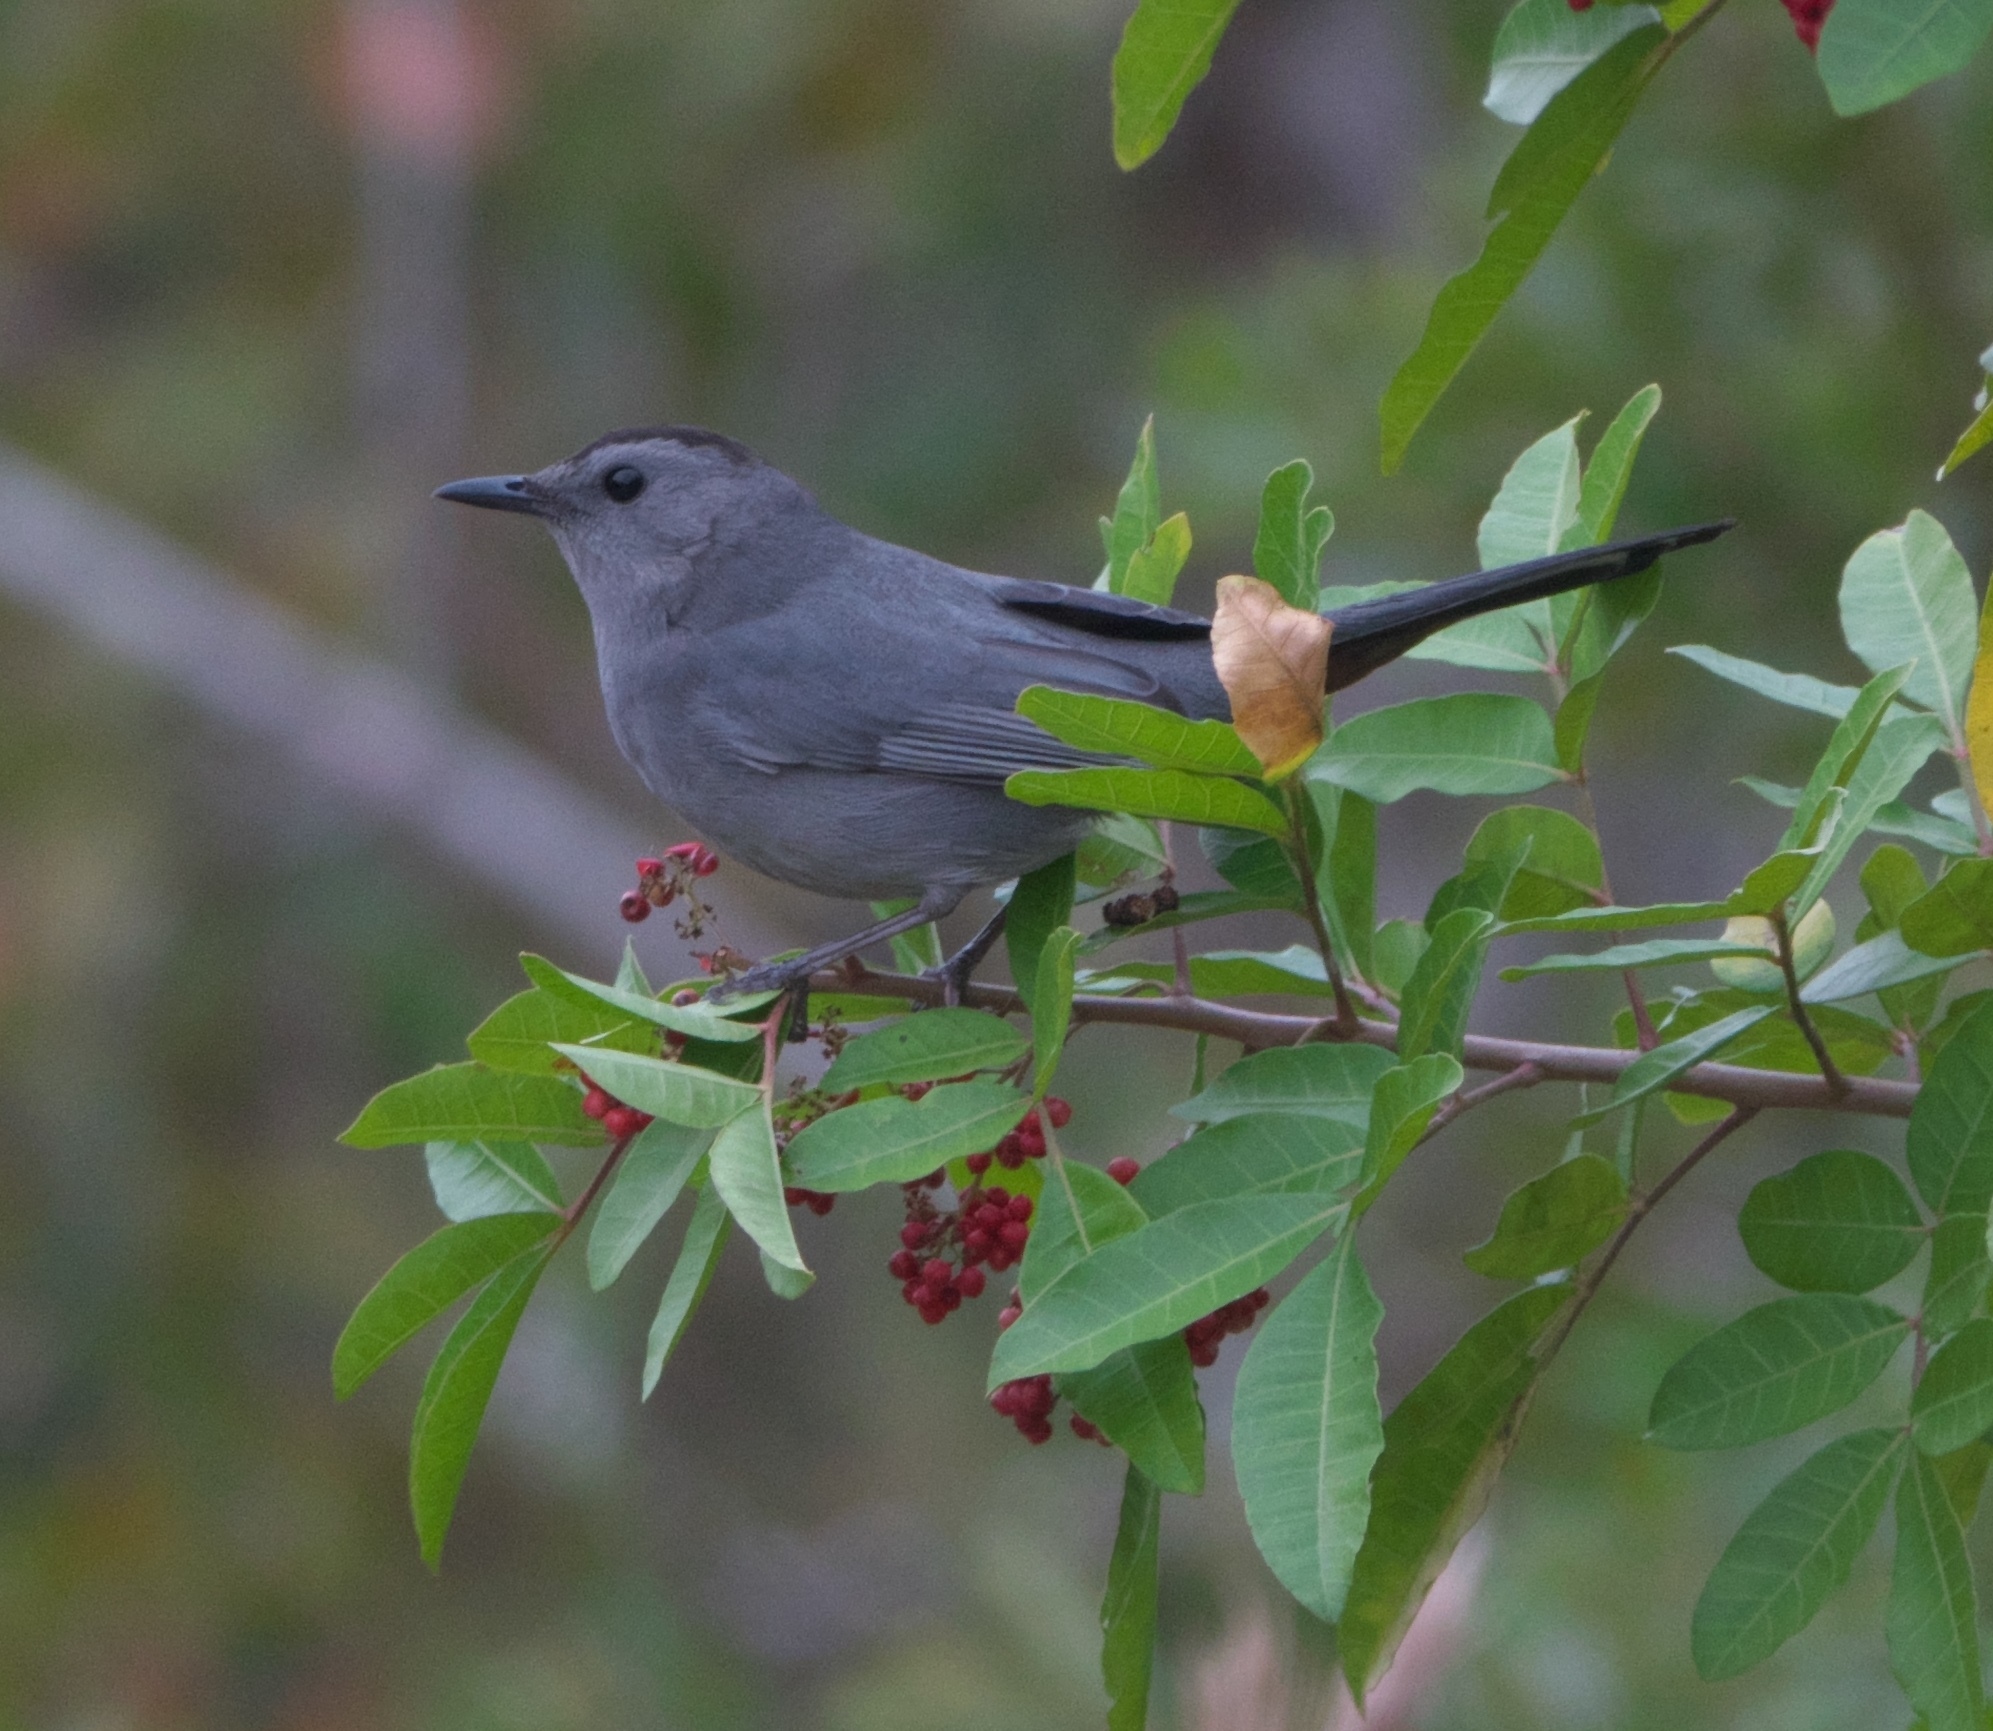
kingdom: Animalia
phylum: Chordata
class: Aves
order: Passeriformes
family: Mimidae
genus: Dumetella
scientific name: Dumetella carolinensis
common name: Gray catbird
